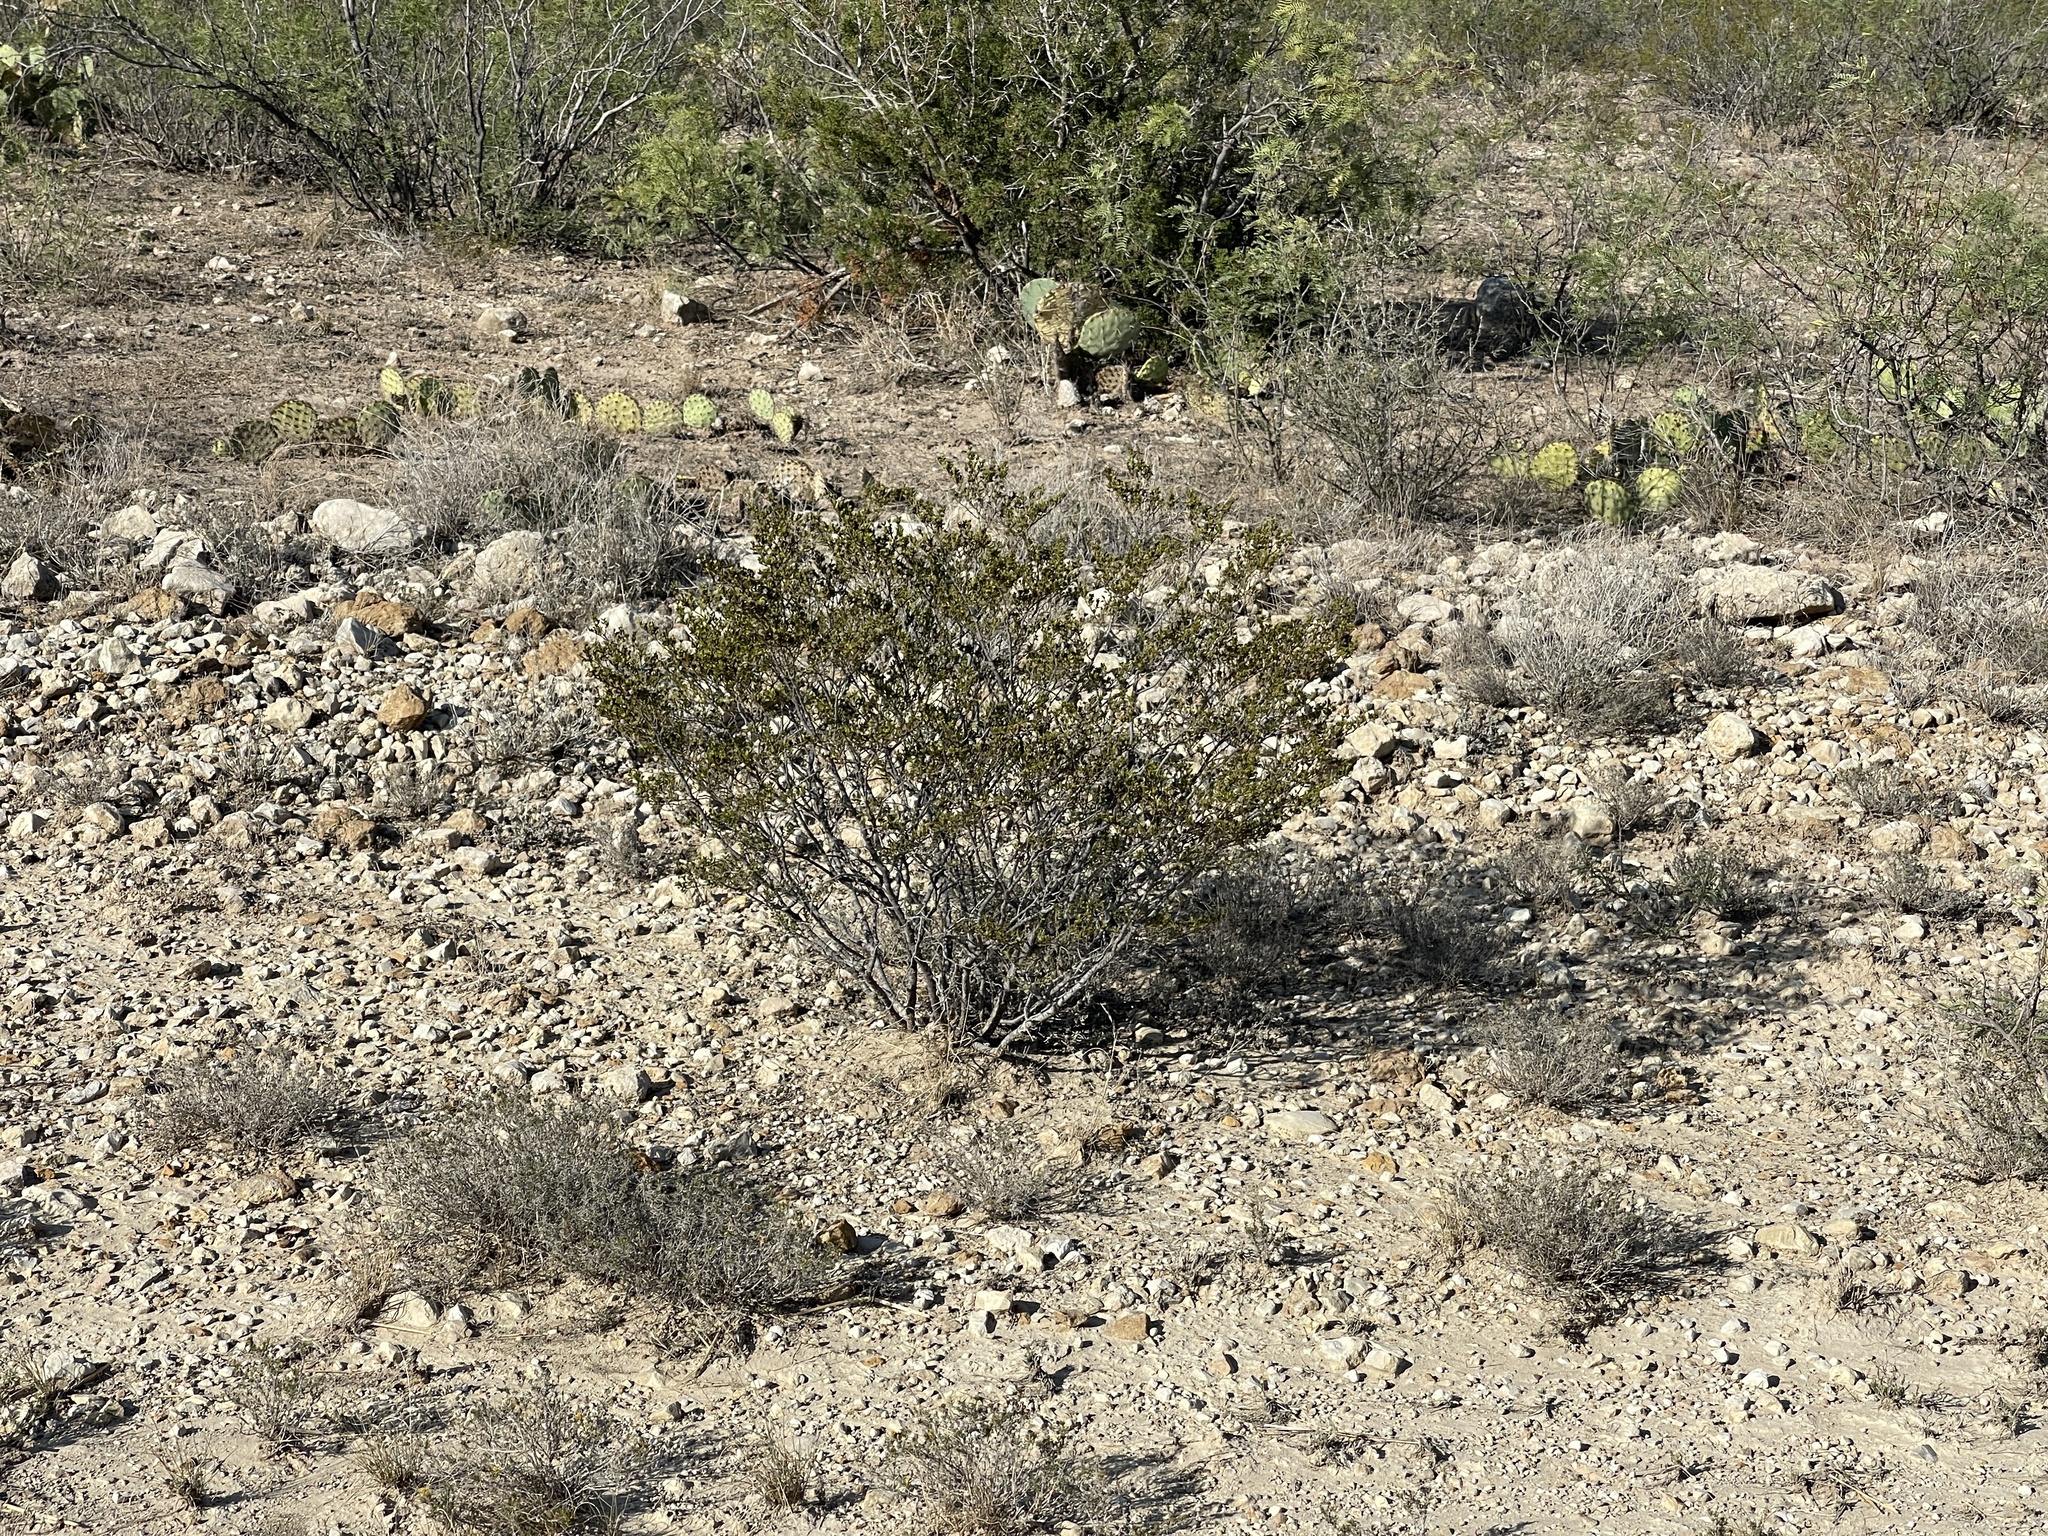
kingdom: Plantae
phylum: Tracheophyta
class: Magnoliopsida
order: Zygophyllales
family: Zygophyllaceae
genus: Larrea
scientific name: Larrea tridentata
